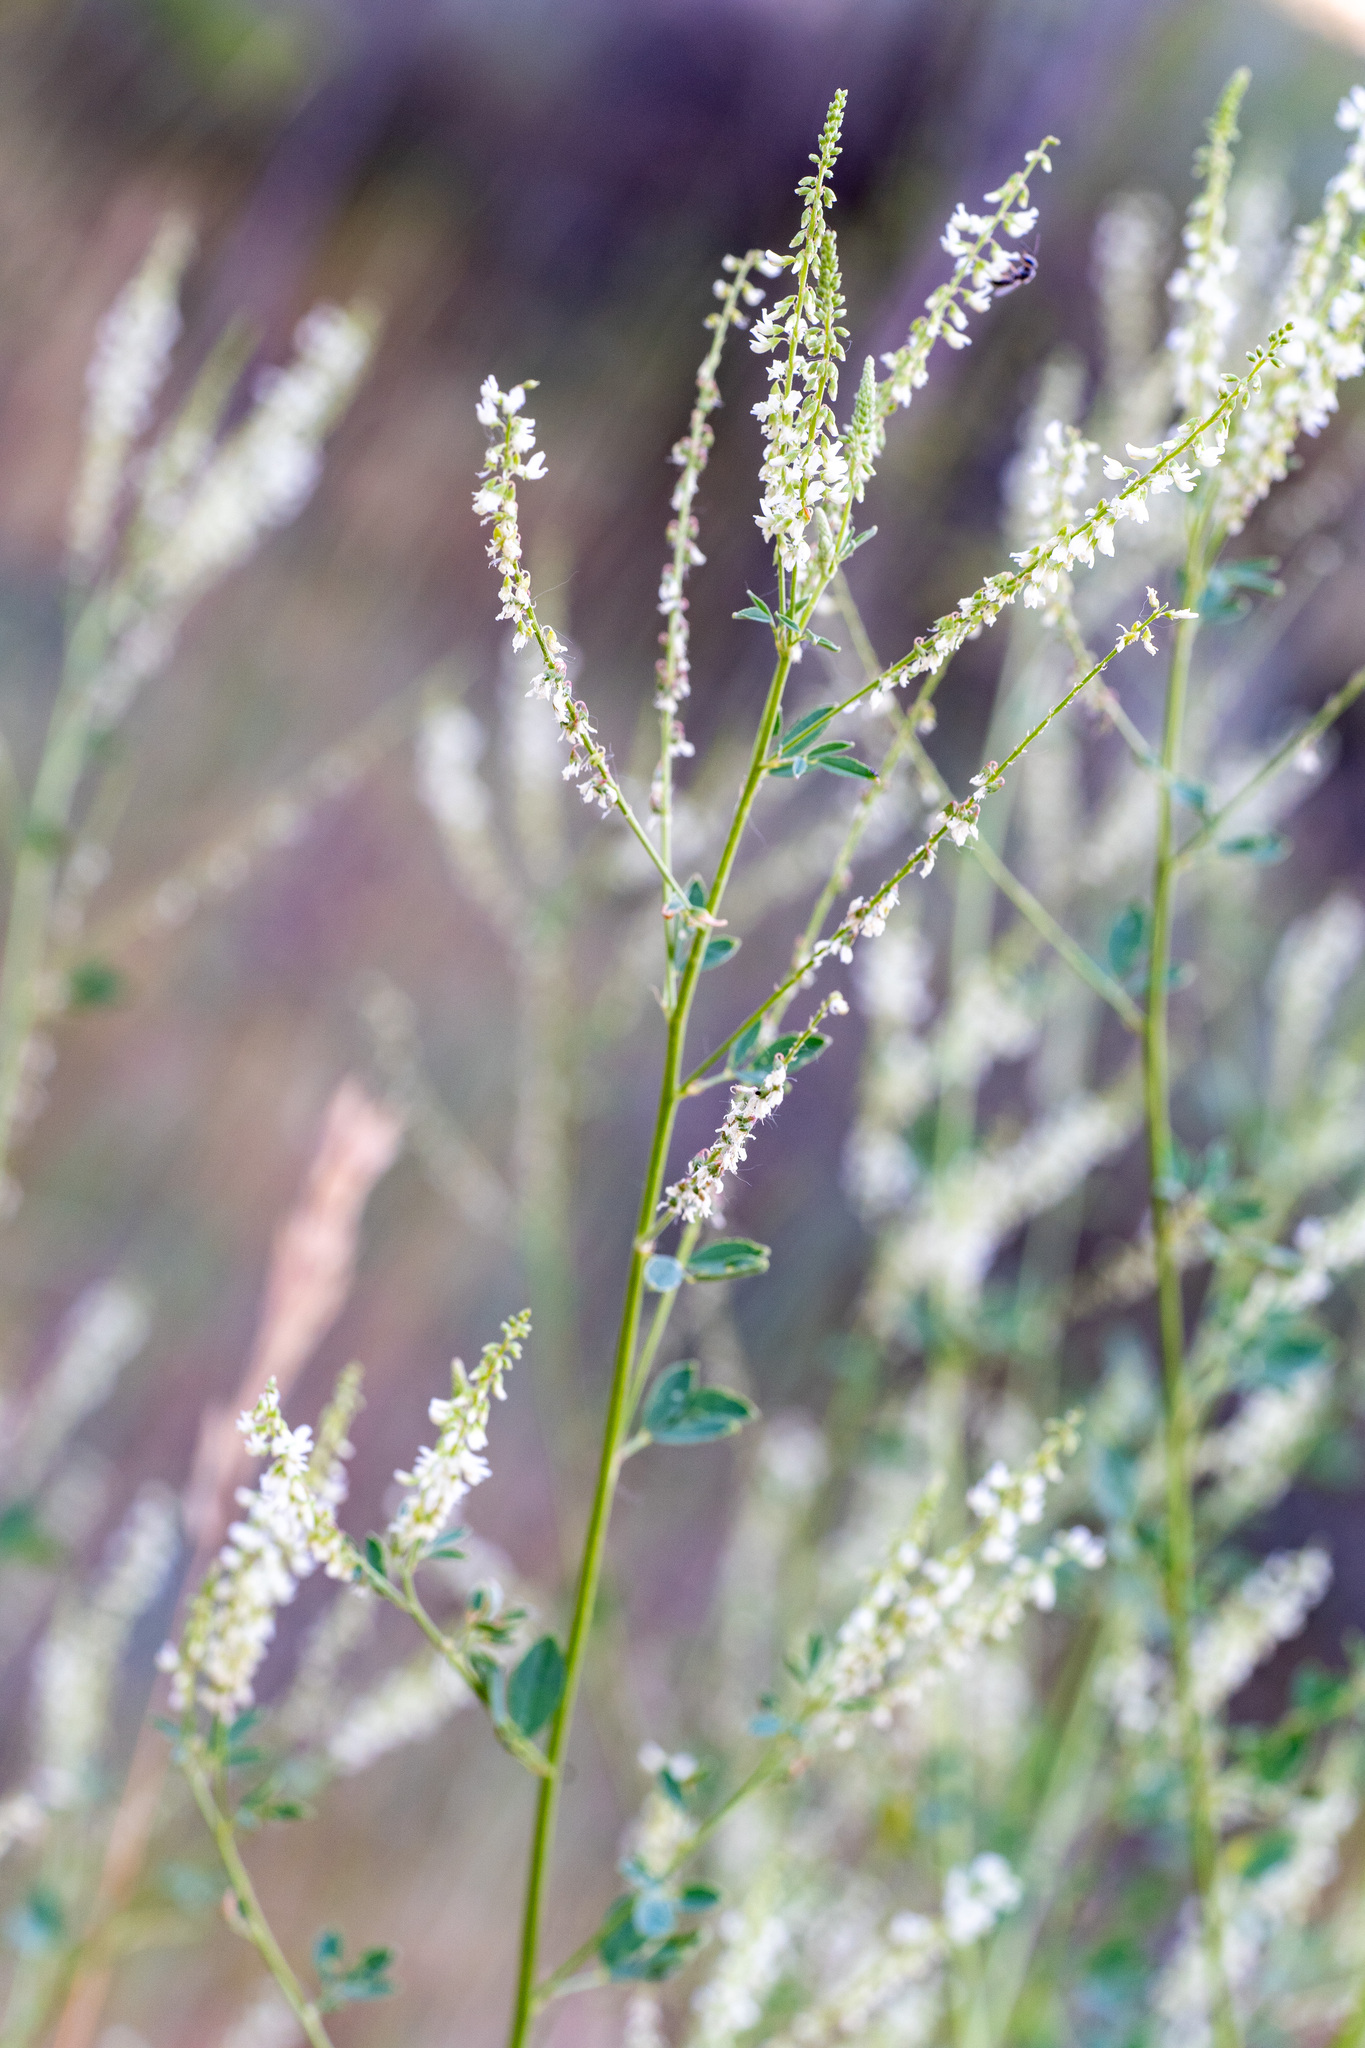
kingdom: Plantae
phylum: Tracheophyta
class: Magnoliopsida
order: Fabales
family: Fabaceae
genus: Melilotus
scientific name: Melilotus albus
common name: White melilot
